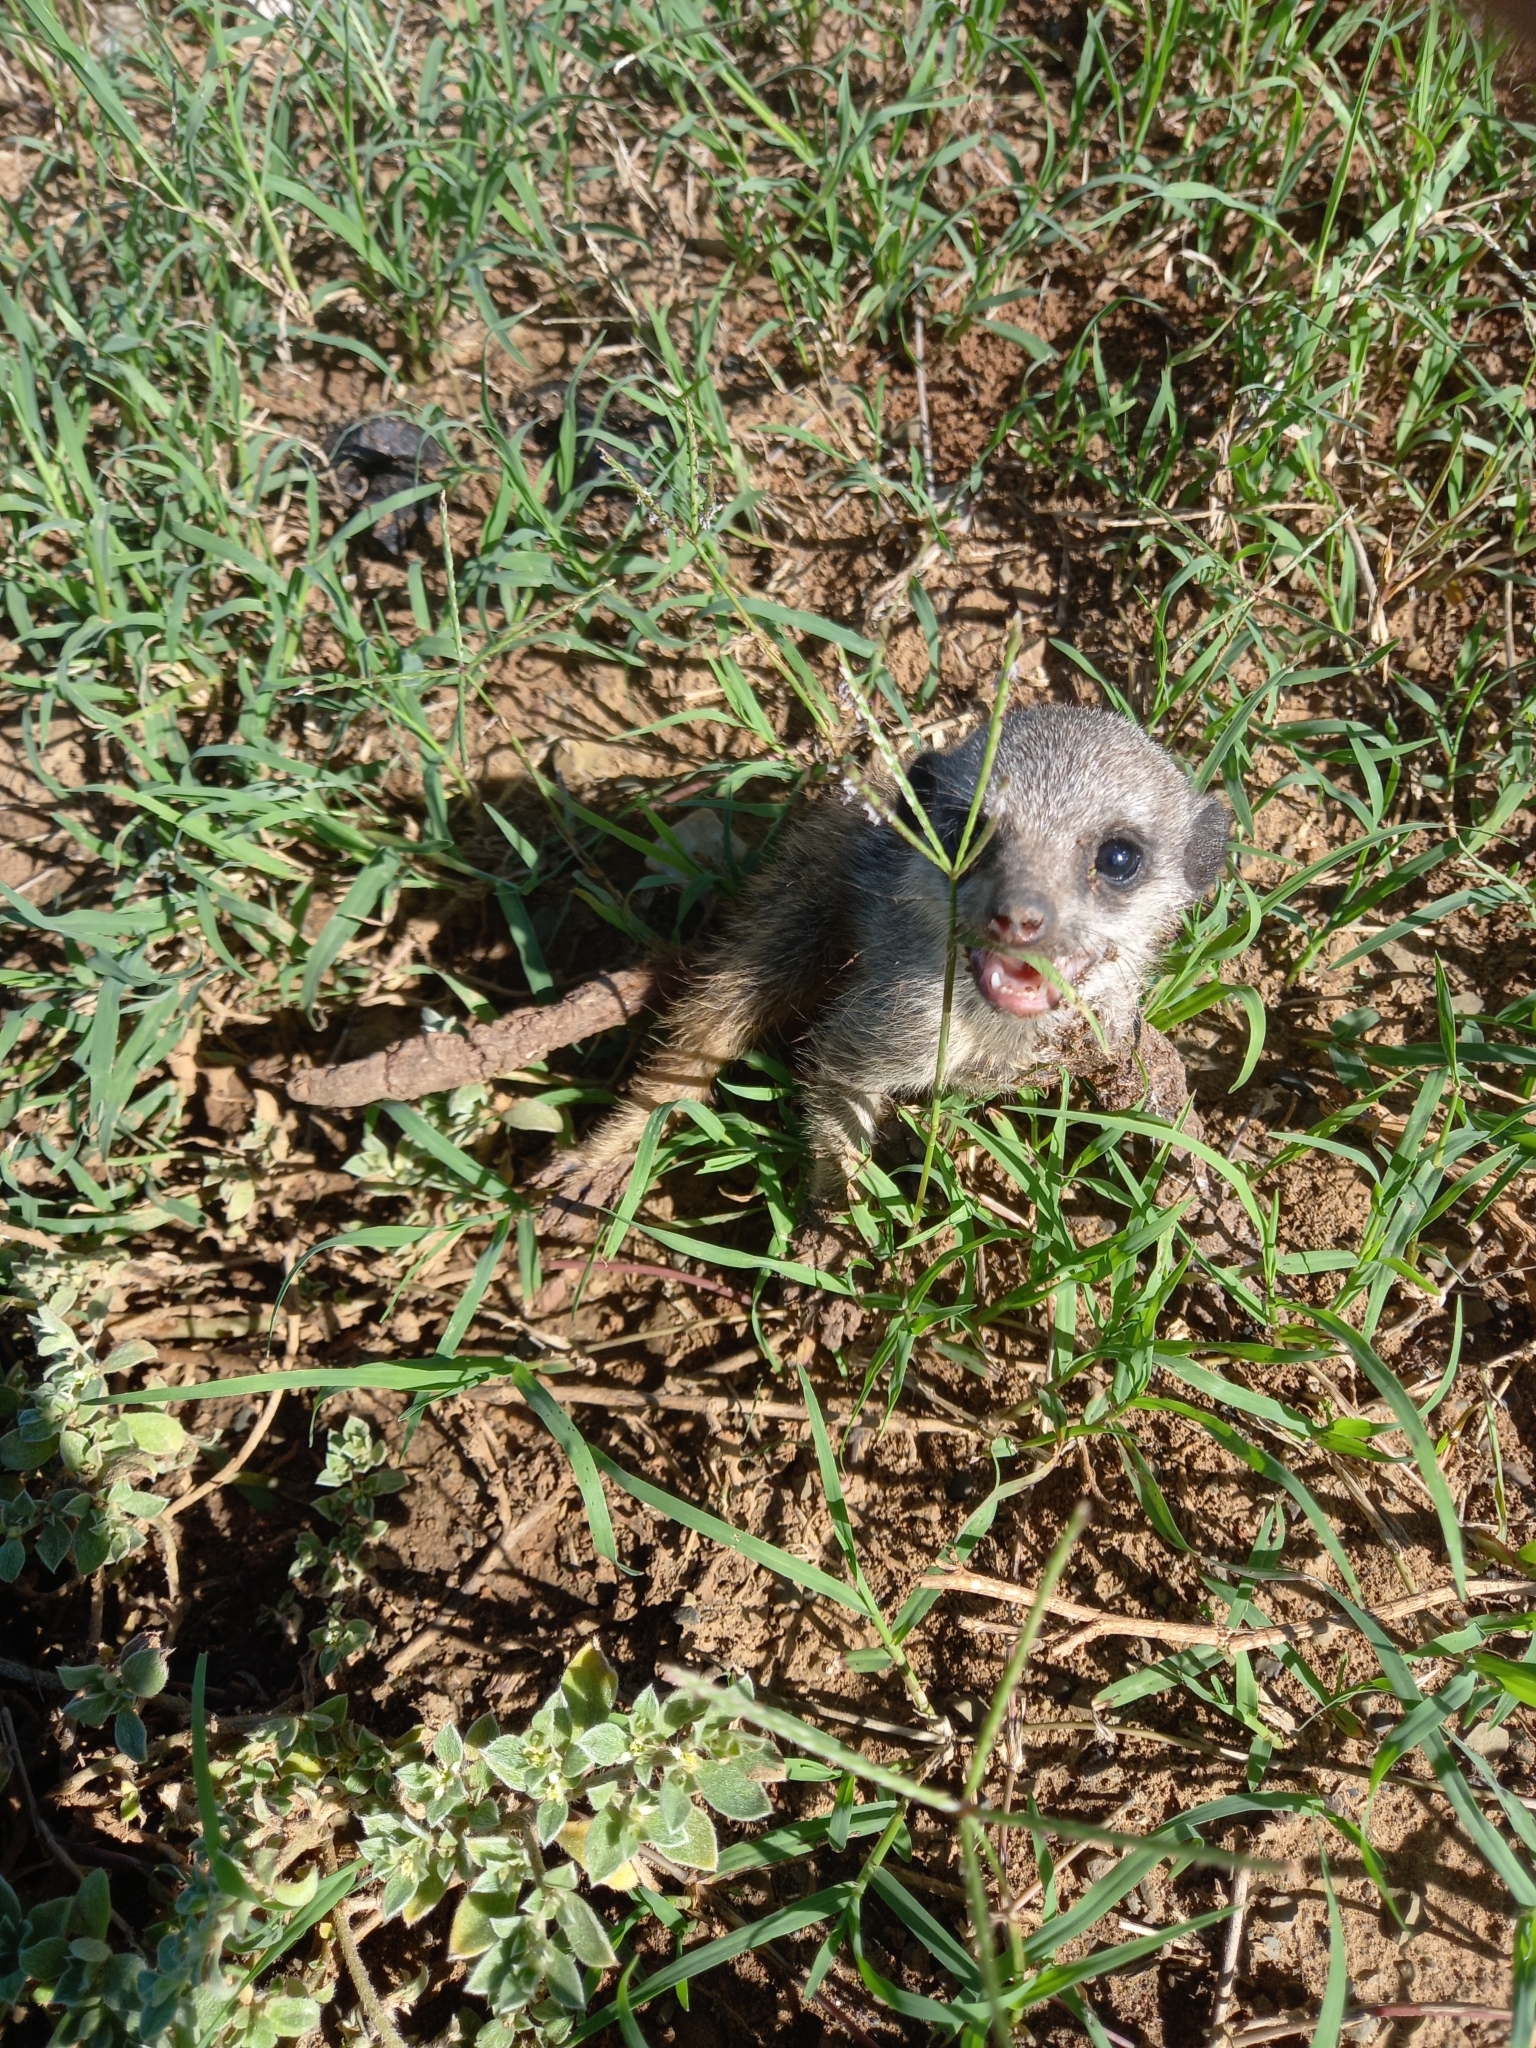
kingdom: Animalia
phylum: Chordata
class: Mammalia
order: Carnivora
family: Herpestidae
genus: Suricata
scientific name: Suricata suricatta
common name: Meerkat
